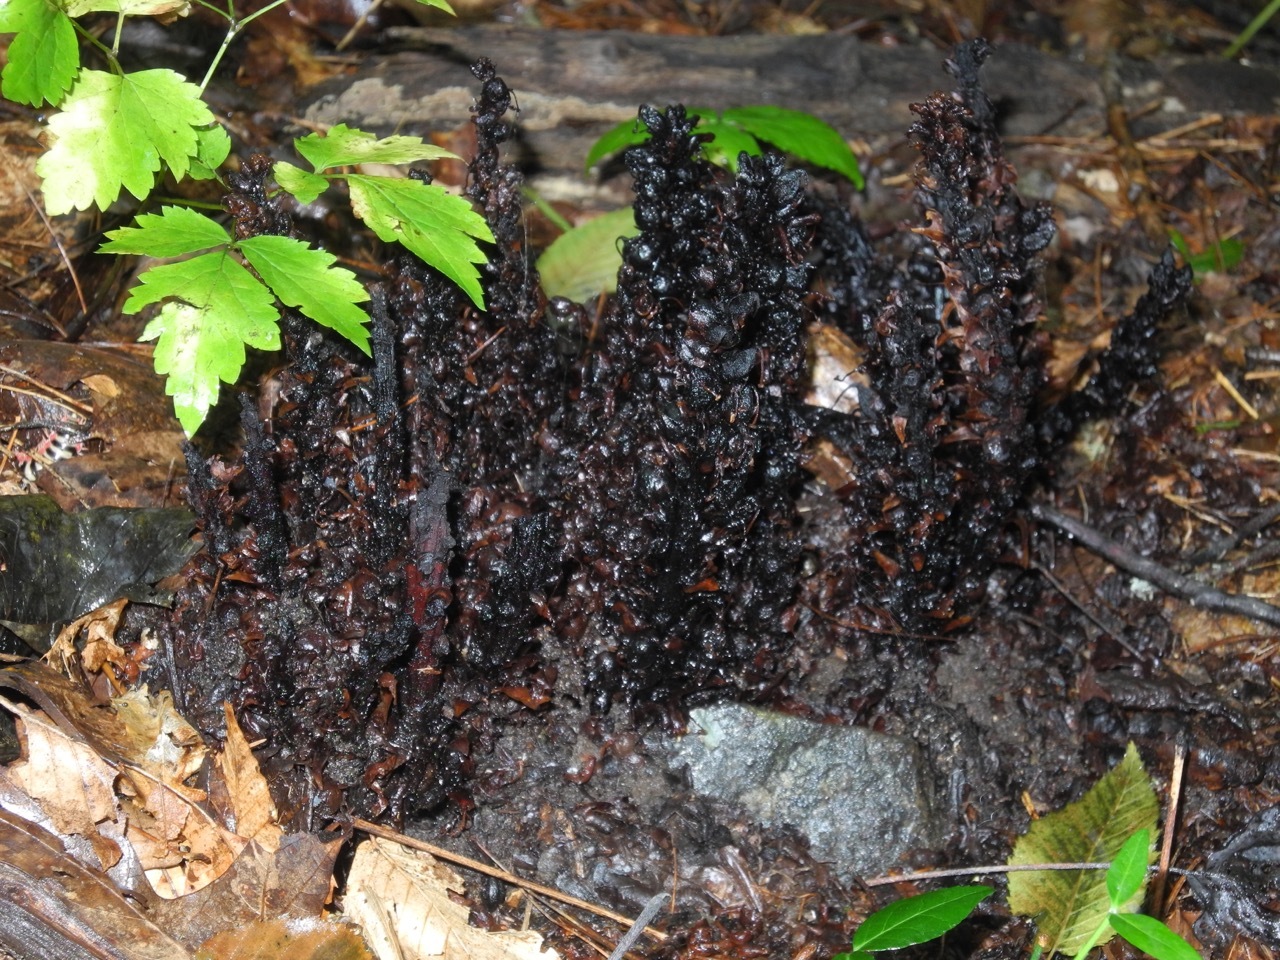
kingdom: Plantae
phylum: Tracheophyta
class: Magnoliopsida
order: Lamiales
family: Orobanchaceae
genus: Conopholis
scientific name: Conopholis americana
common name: American cancer-root
